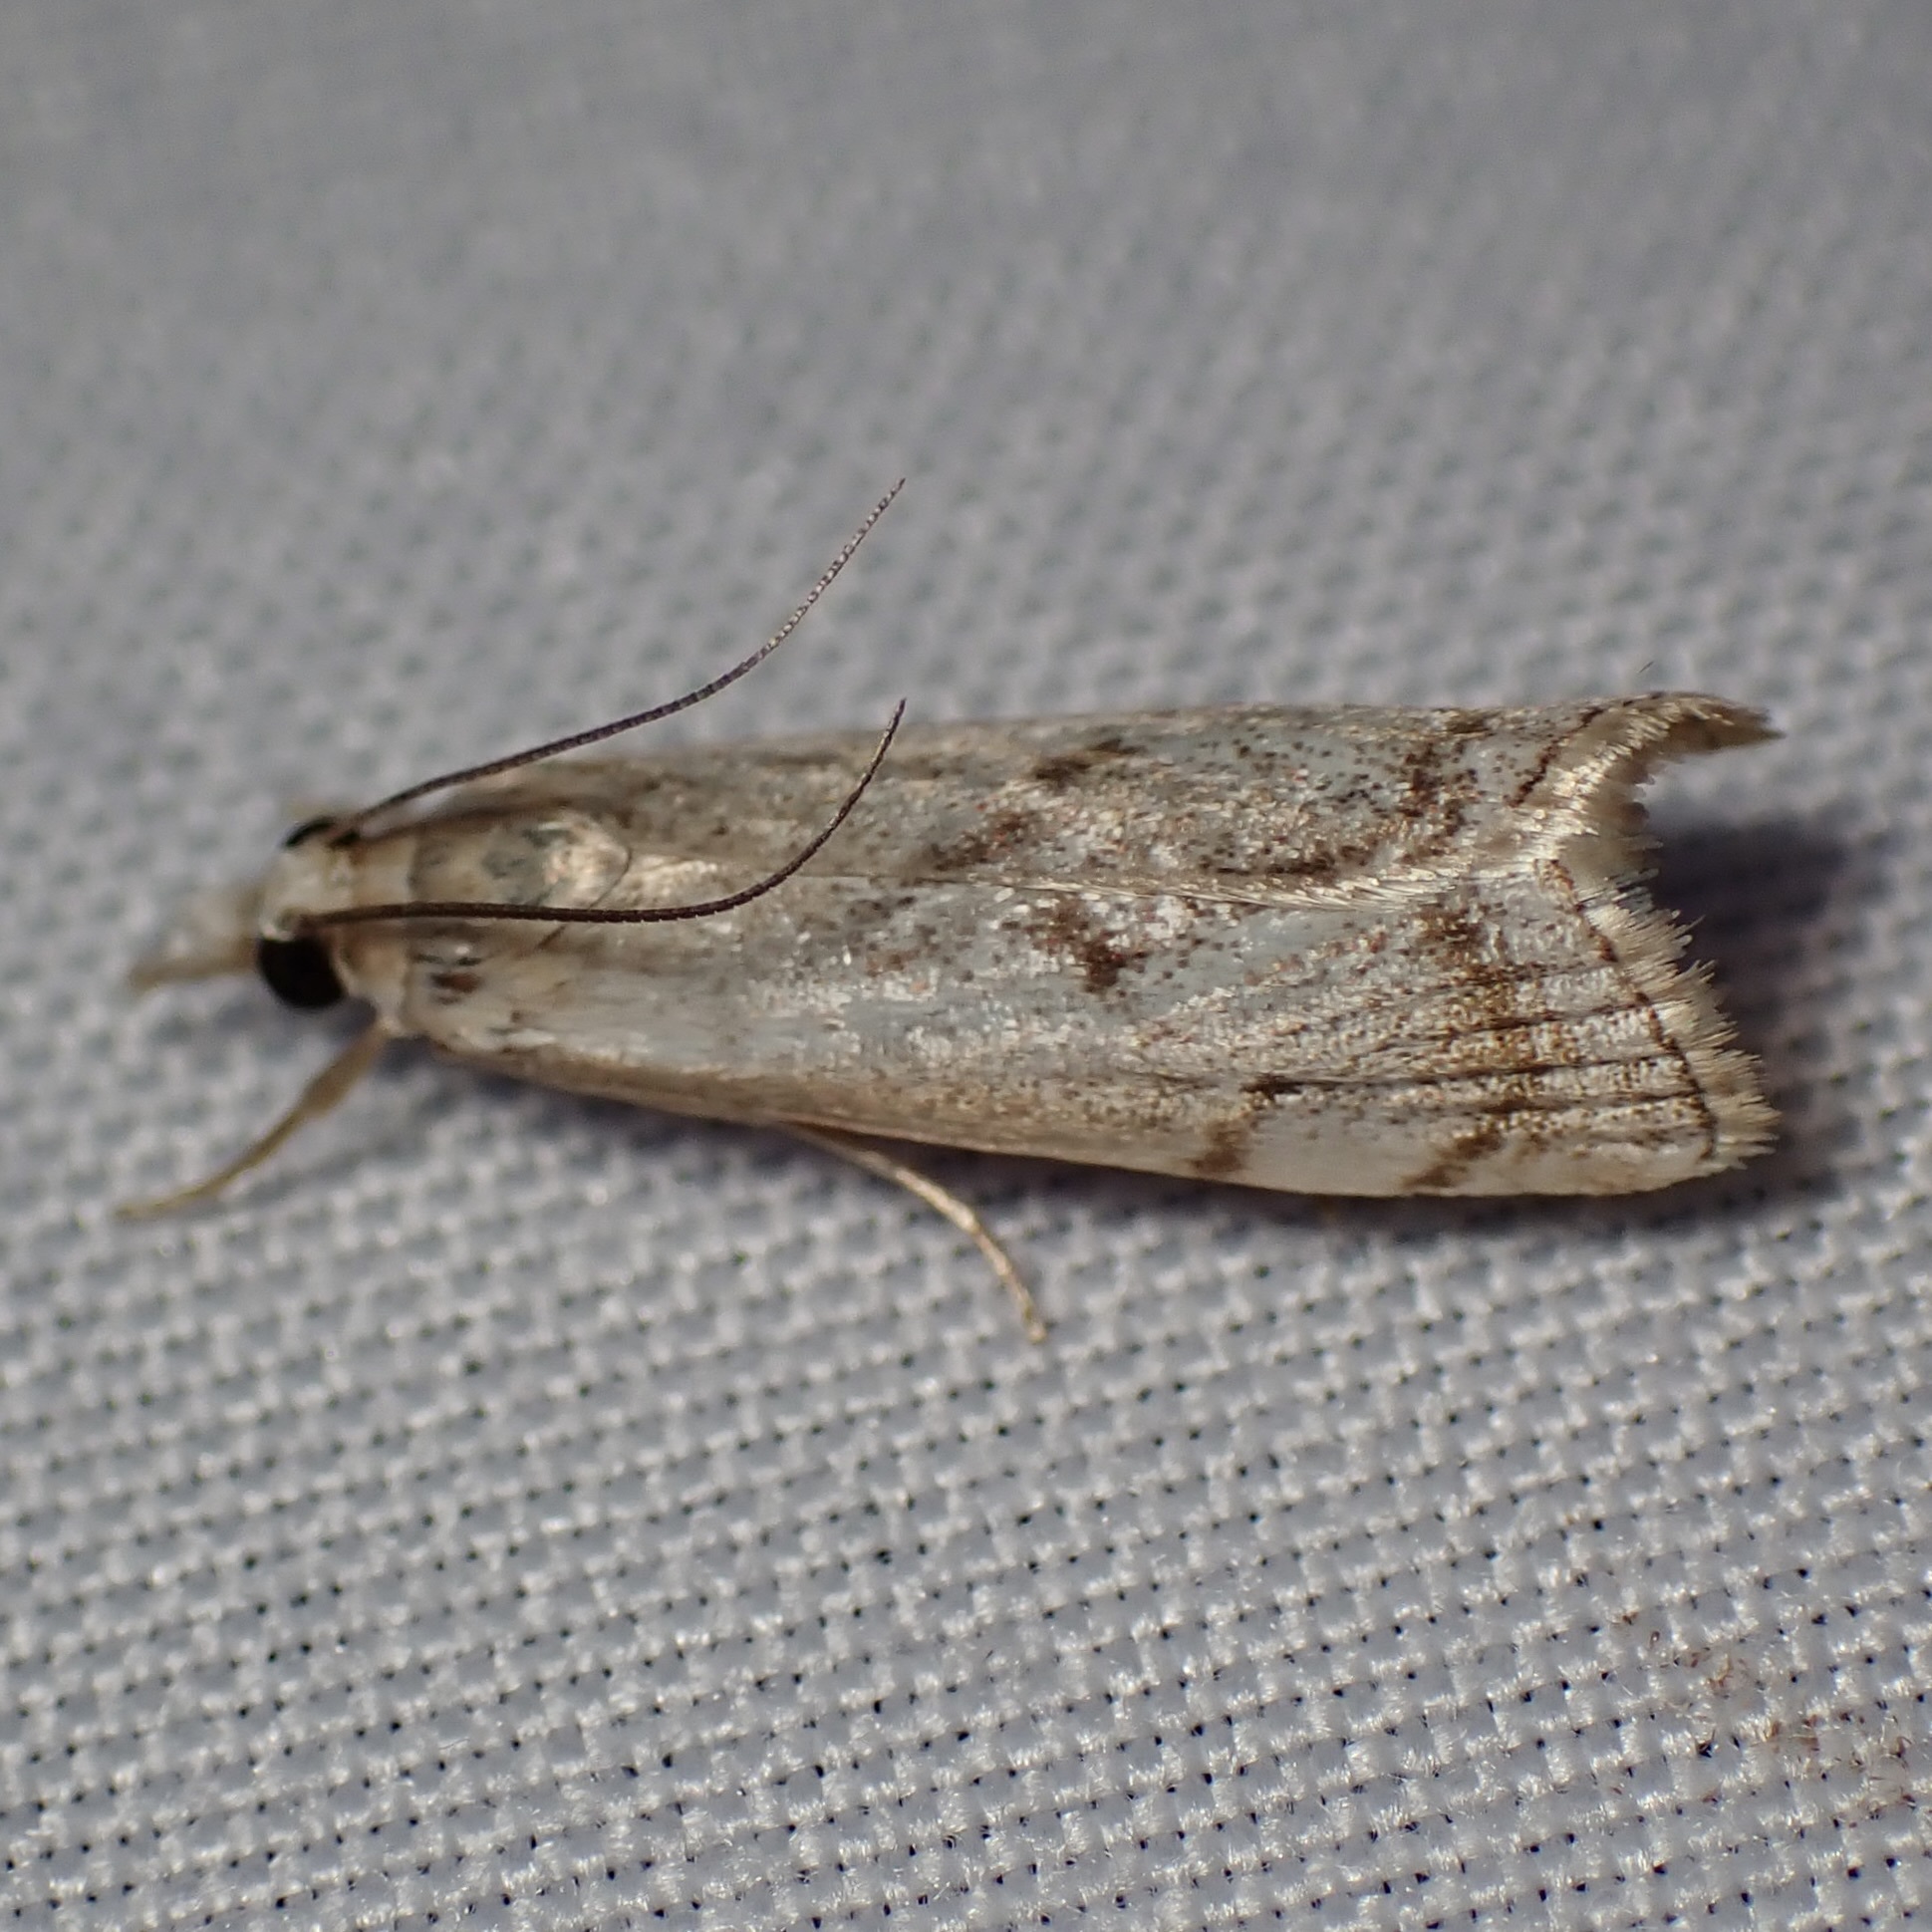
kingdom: Animalia
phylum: Arthropoda
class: Insecta
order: Lepidoptera
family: Crambidae
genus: Microcrambus
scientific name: Microcrambus polingi
